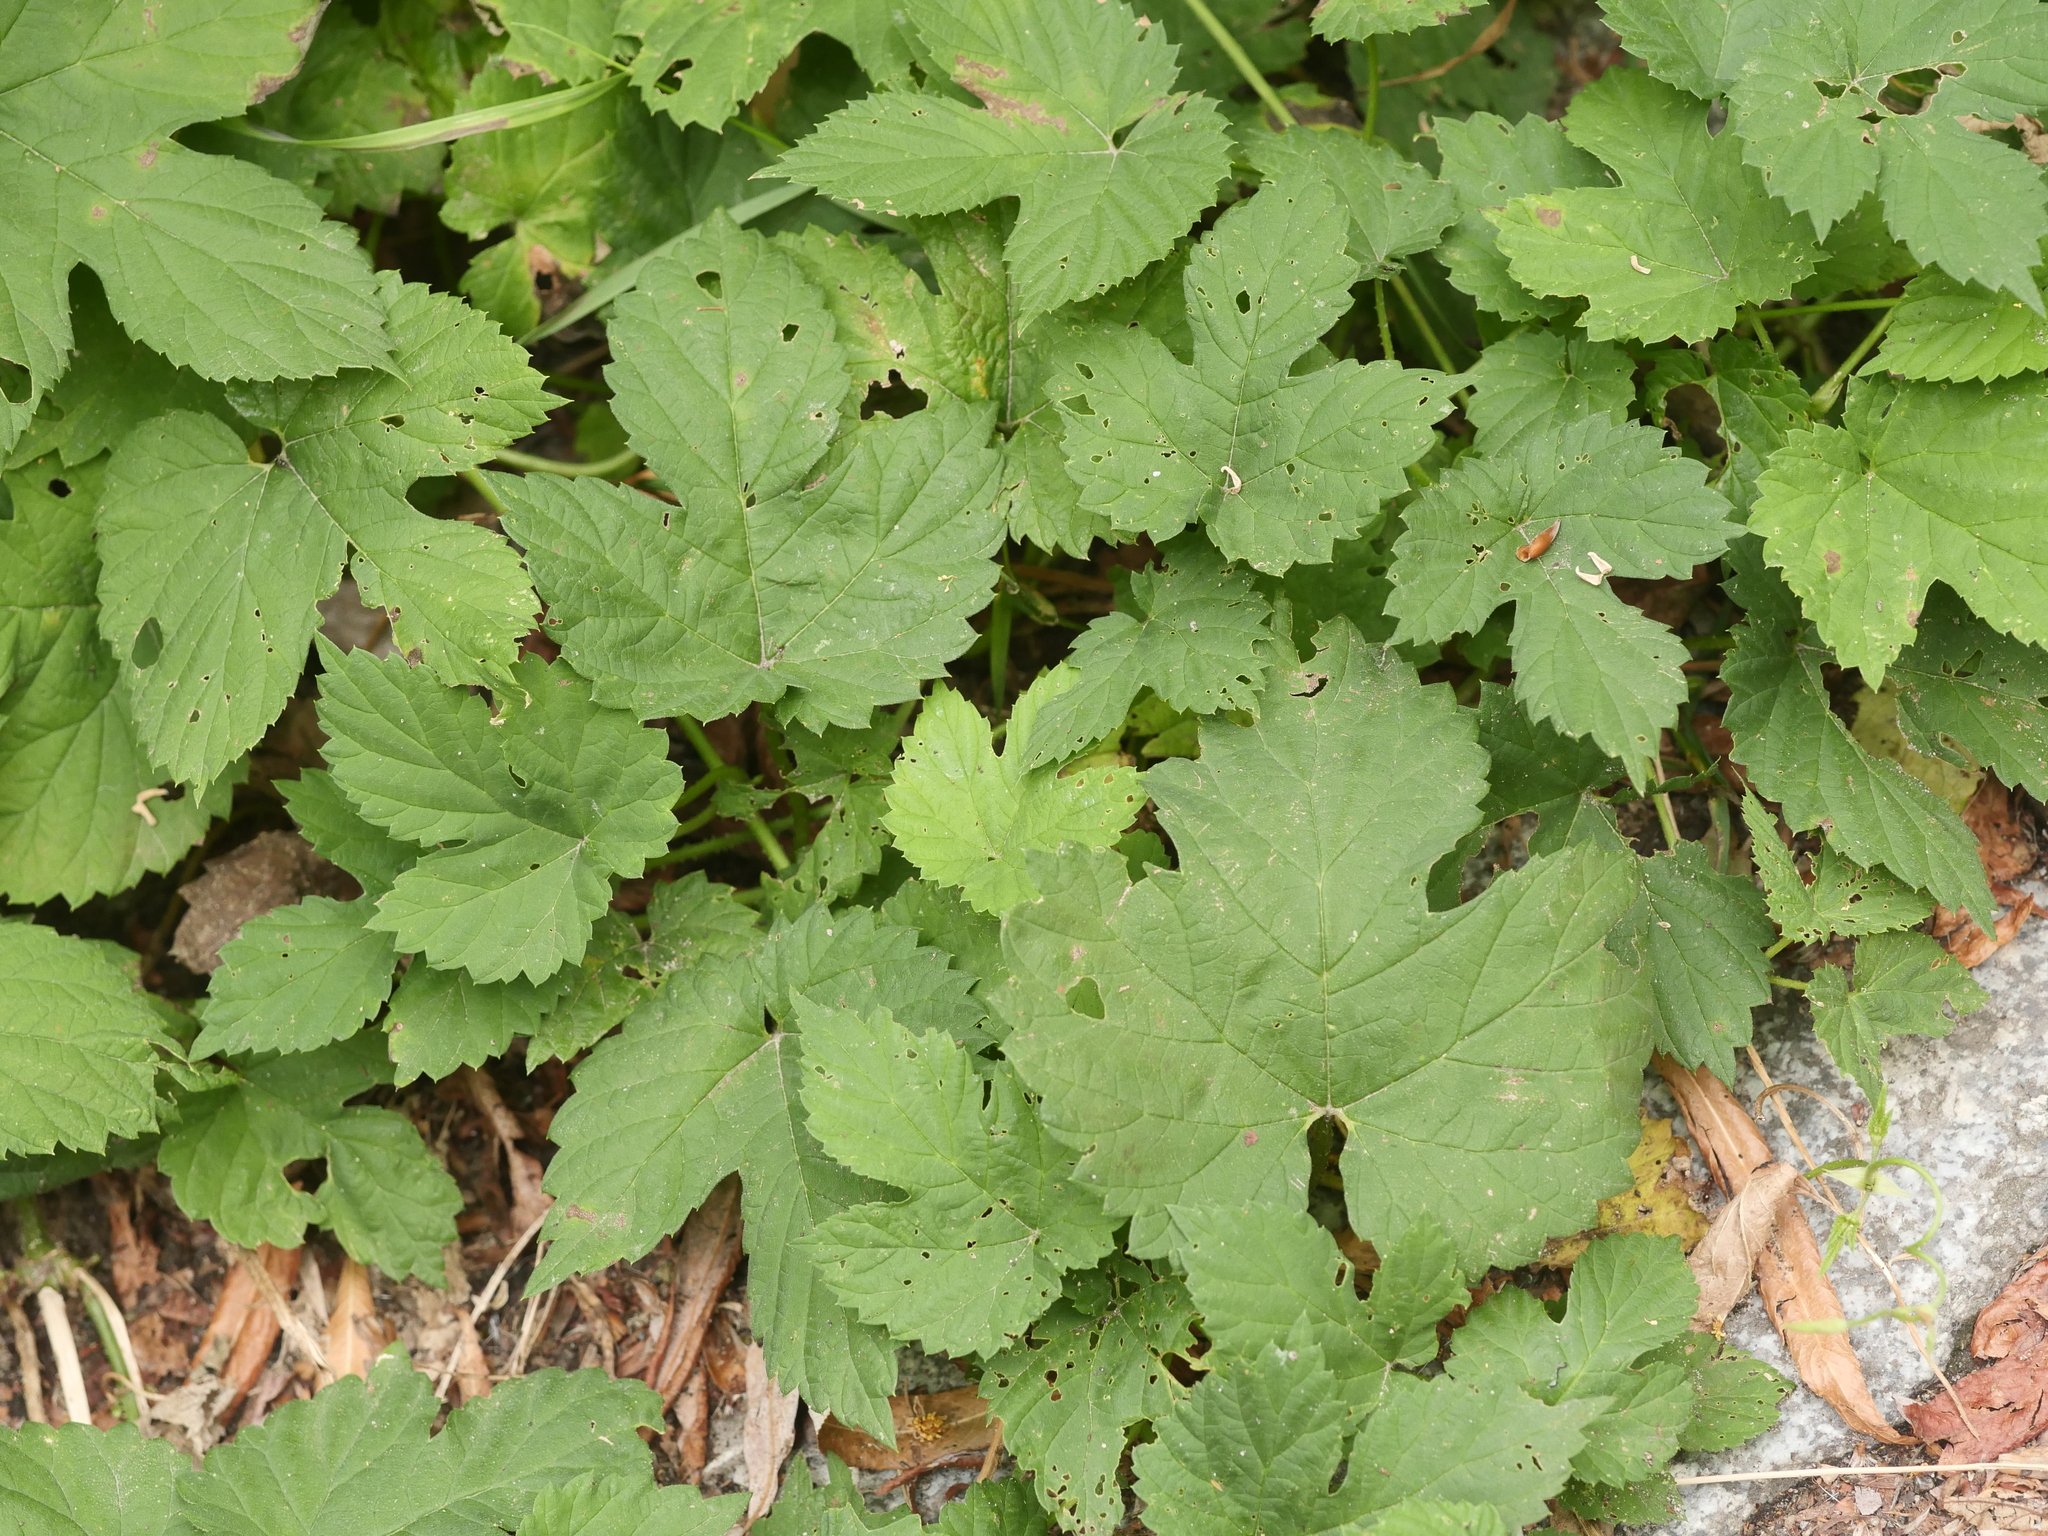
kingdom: Plantae
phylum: Tracheophyta
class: Magnoliopsida
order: Rosales
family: Cannabaceae
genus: Humulus
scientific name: Humulus lupulus
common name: Hop
